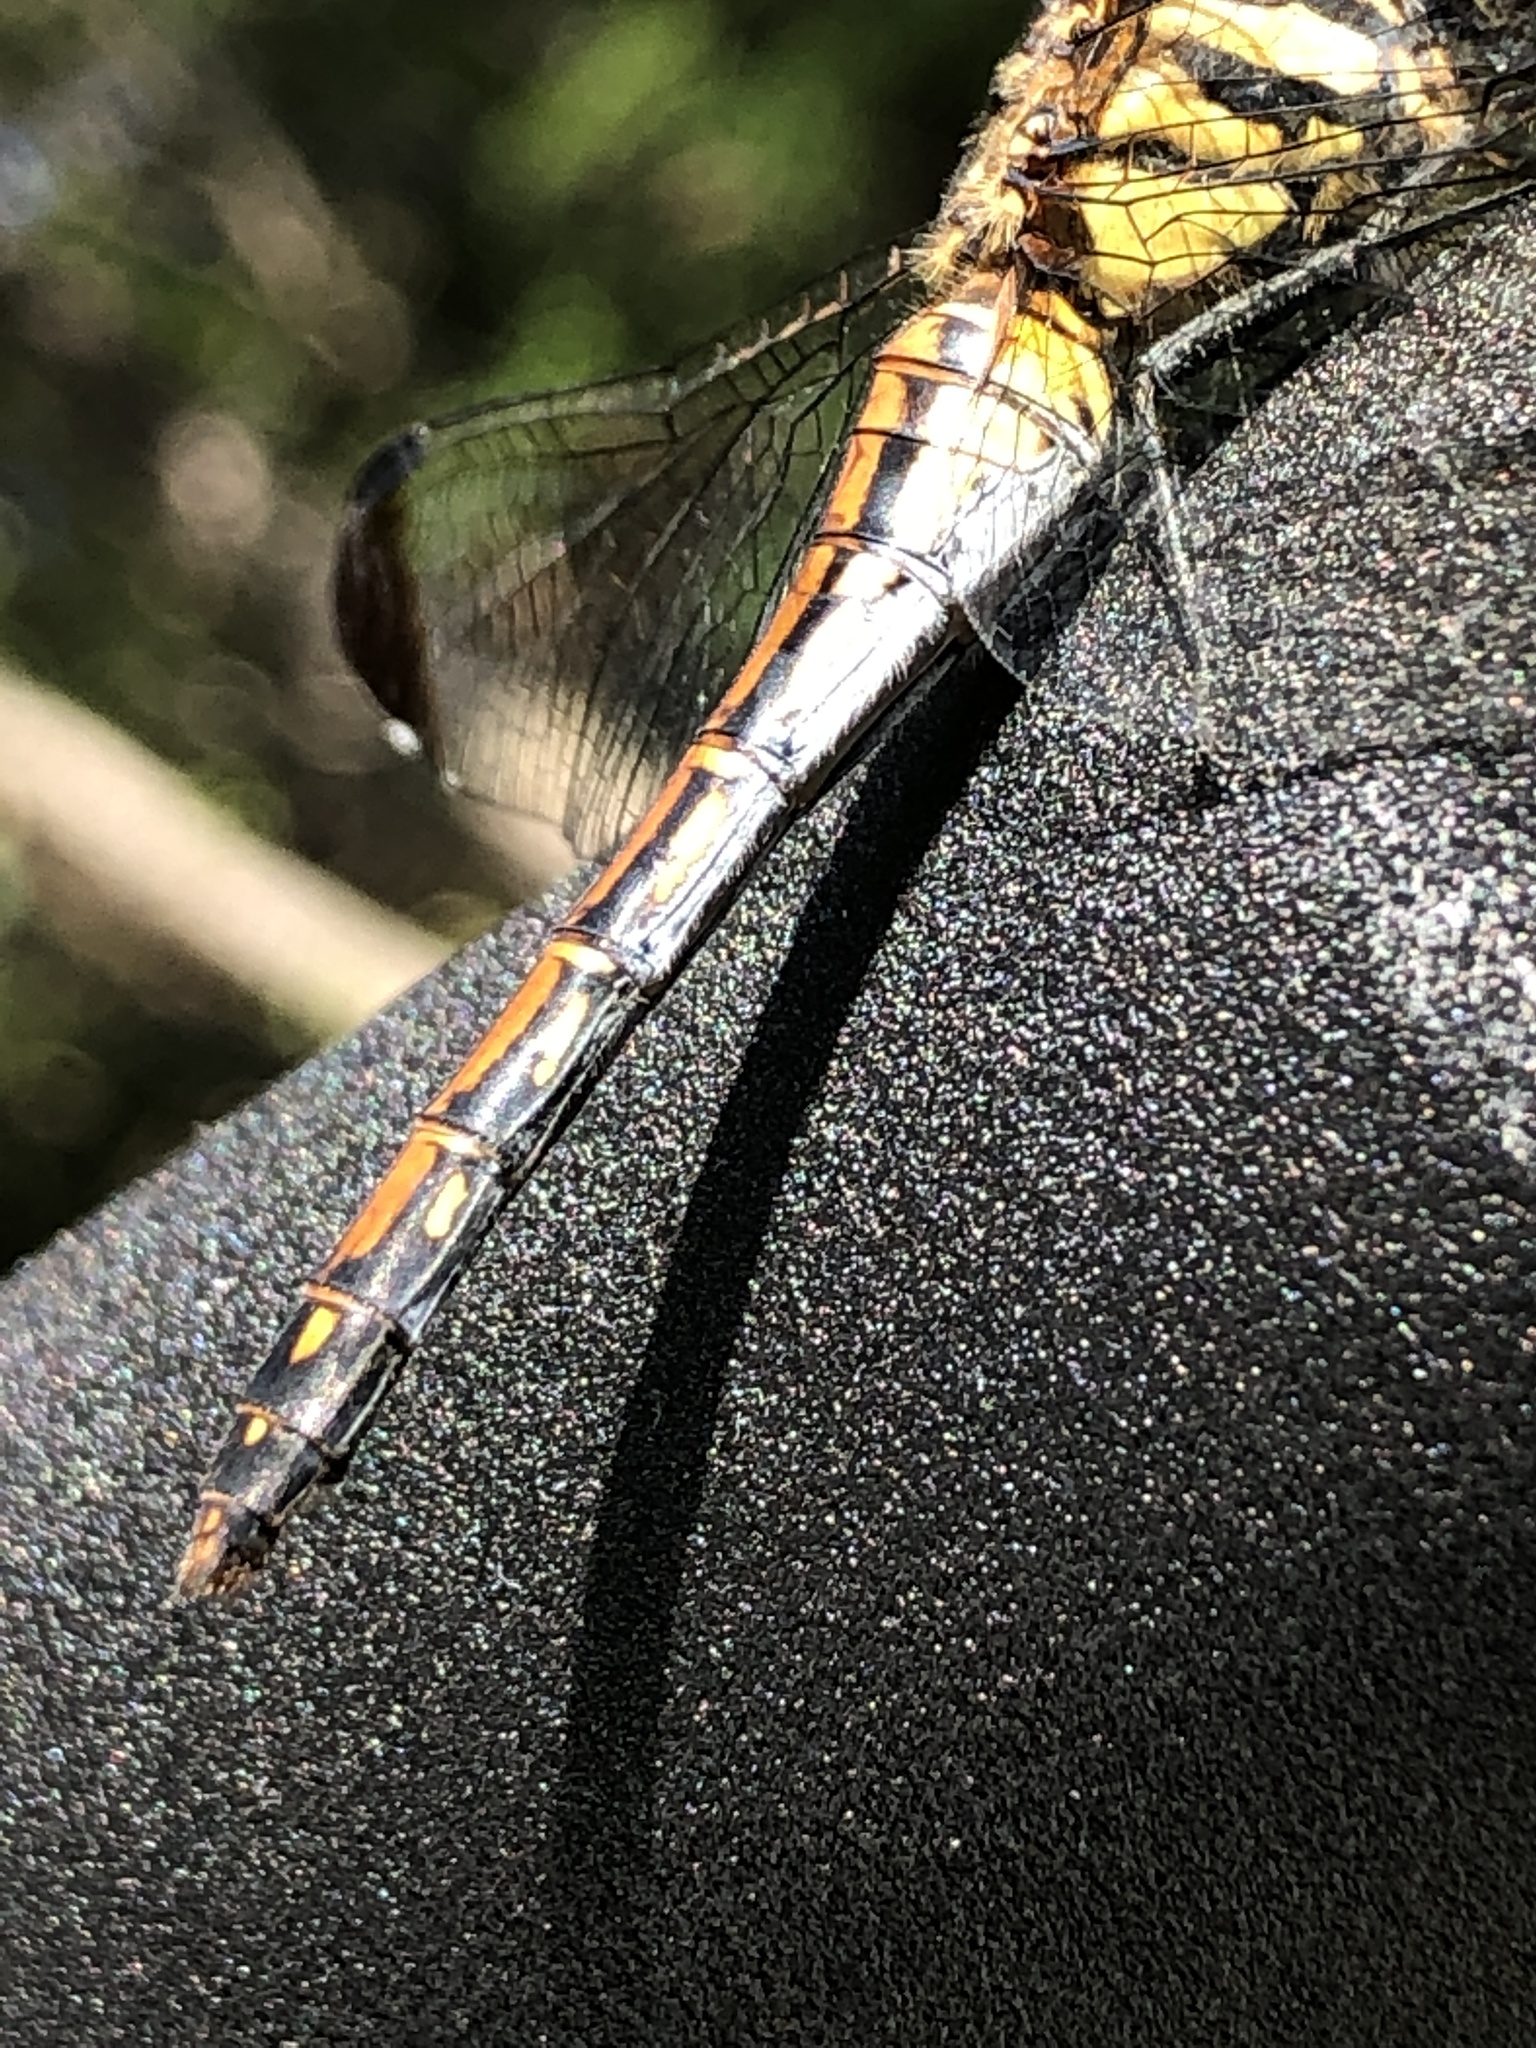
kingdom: Animalia
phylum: Arthropoda
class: Insecta
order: Odonata
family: Libellulidae
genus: Sympetrum
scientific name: Sympetrum infuscatum
